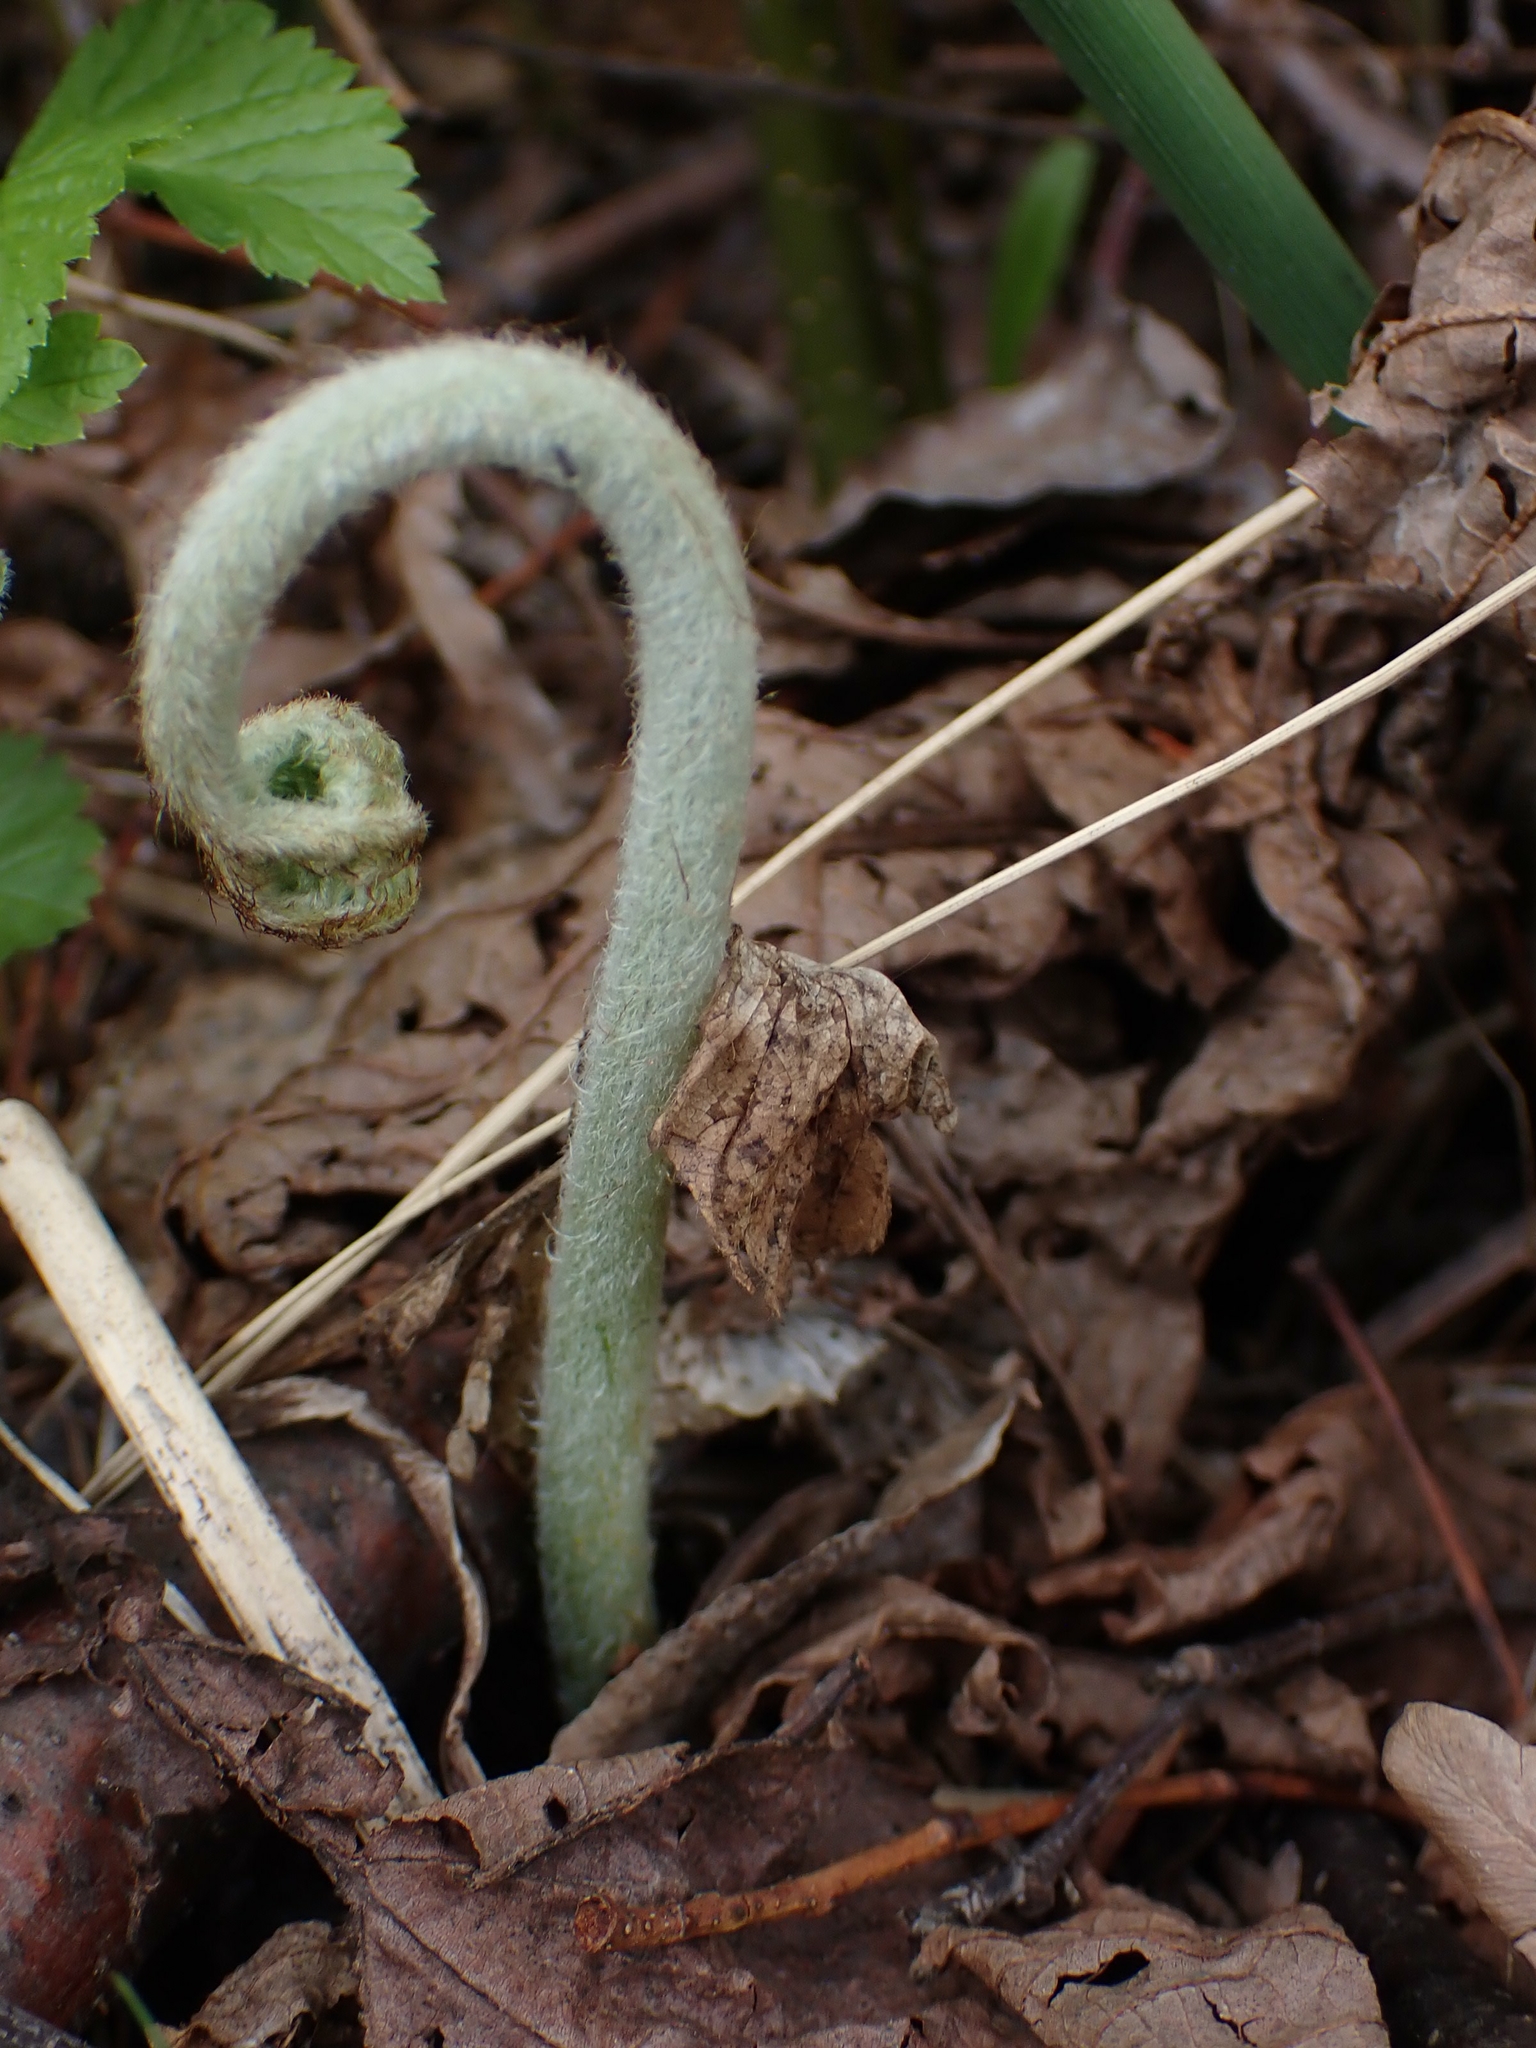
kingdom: Plantae
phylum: Tracheophyta
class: Polypodiopsida
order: Polypodiales
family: Dennstaedtiaceae
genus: Pteridium
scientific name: Pteridium aquilinum
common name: Bracken
